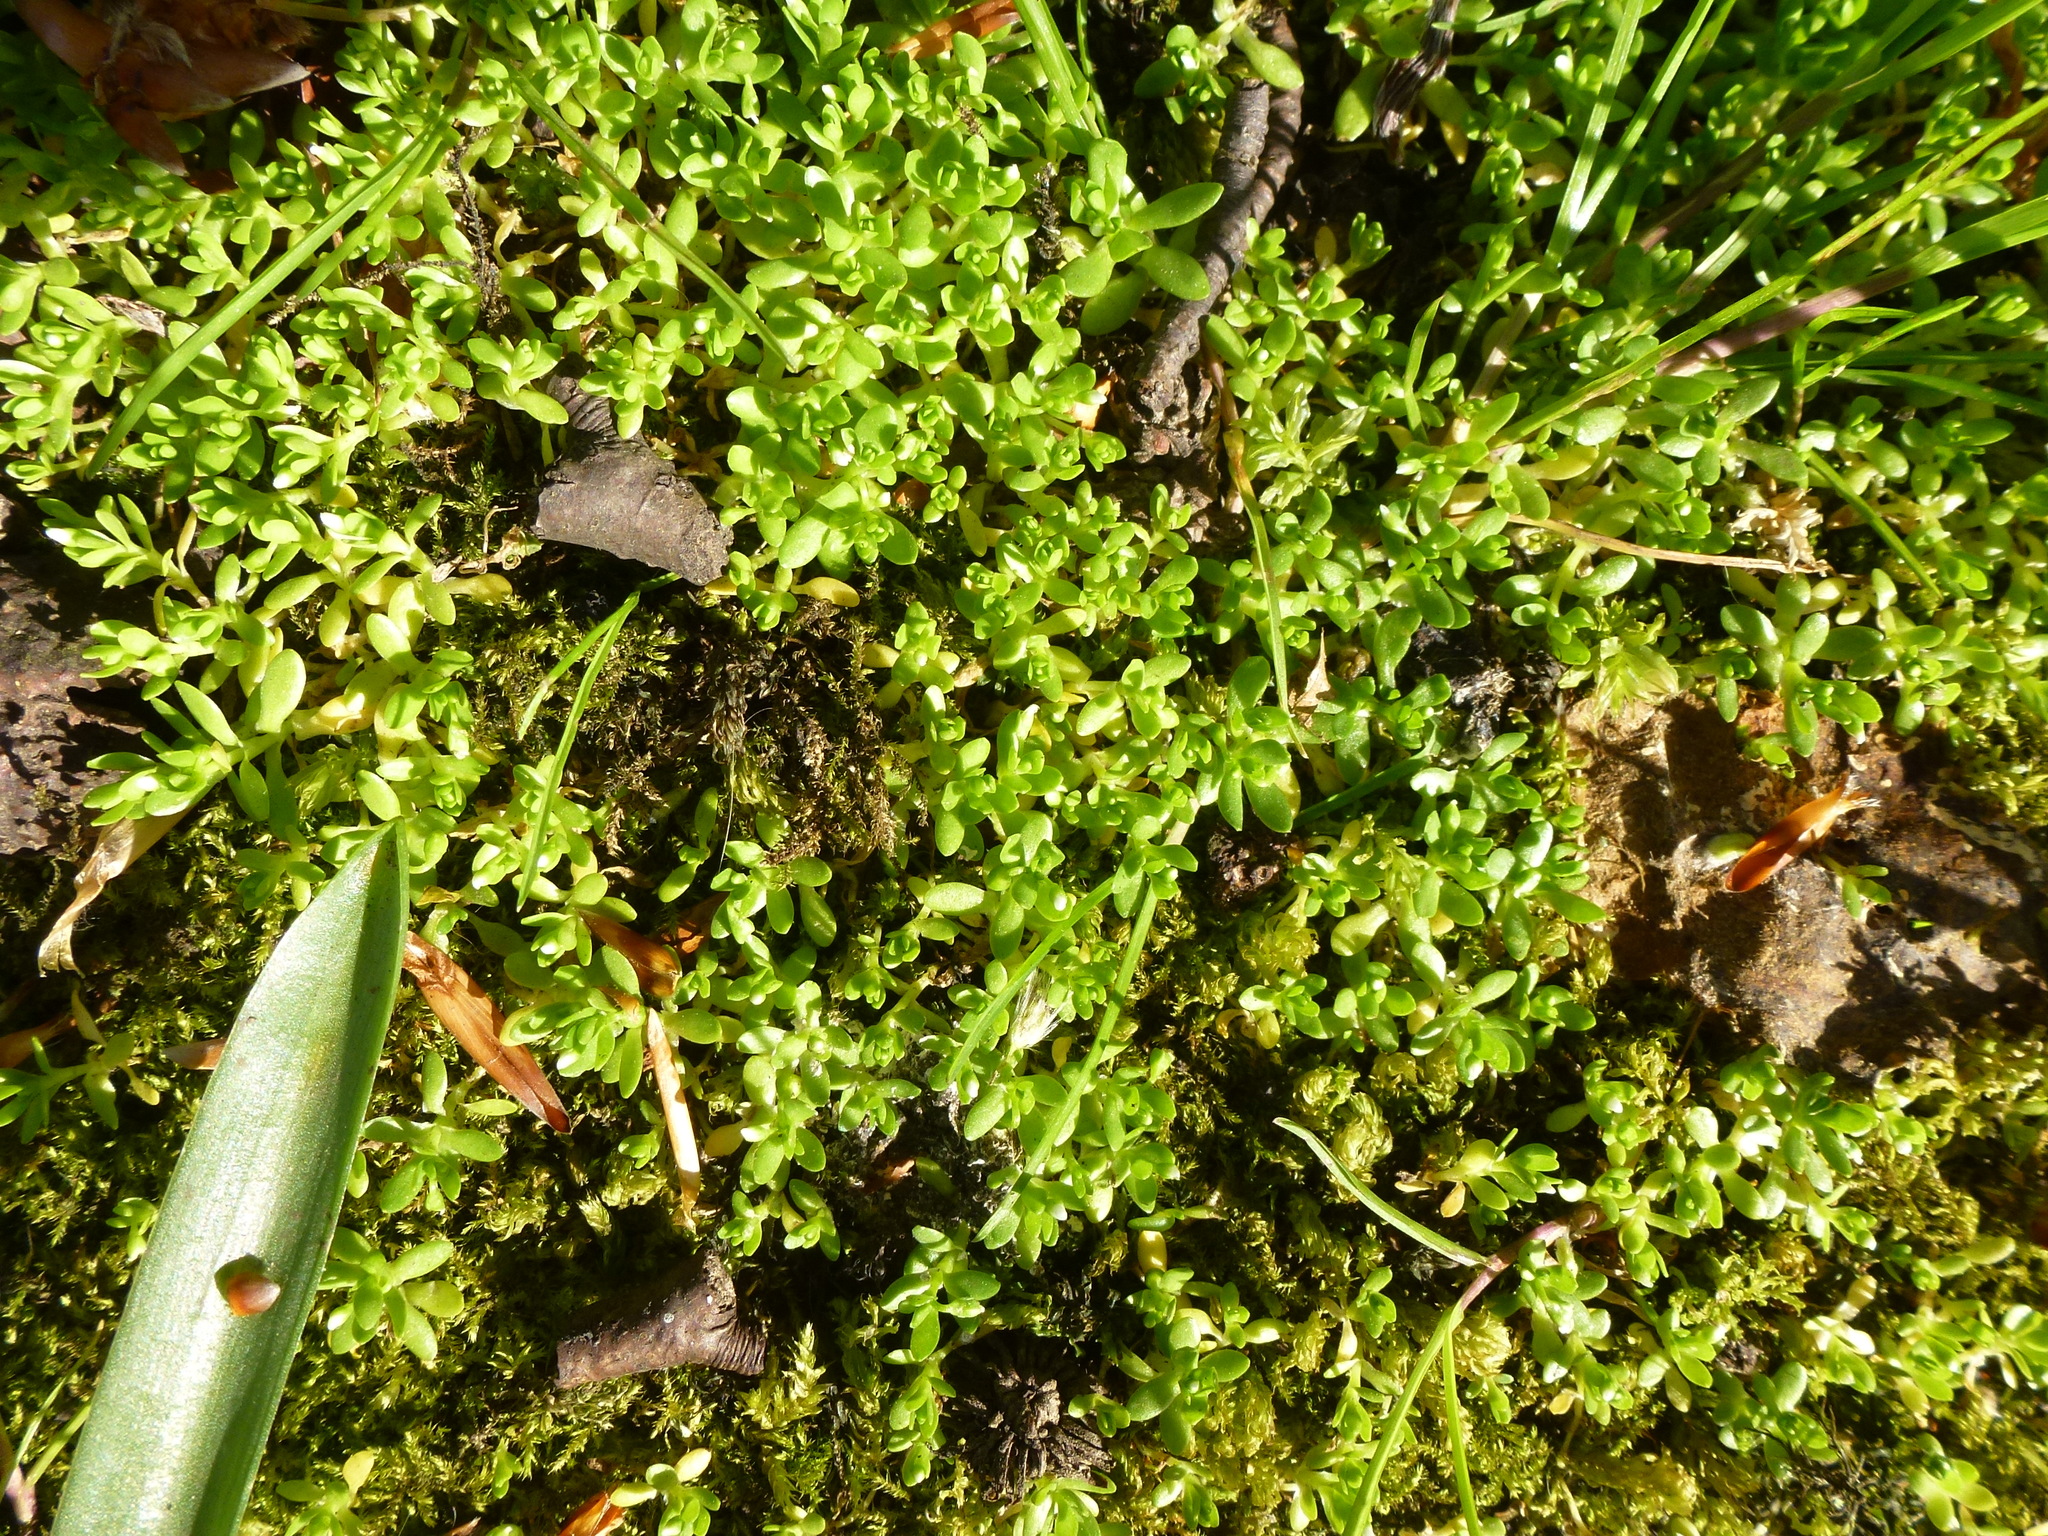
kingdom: Plantae
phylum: Tracheophyta
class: Magnoliopsida
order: Caryophyllales
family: Montiaceae
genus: Montia
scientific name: Montia fontana
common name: Blinks
